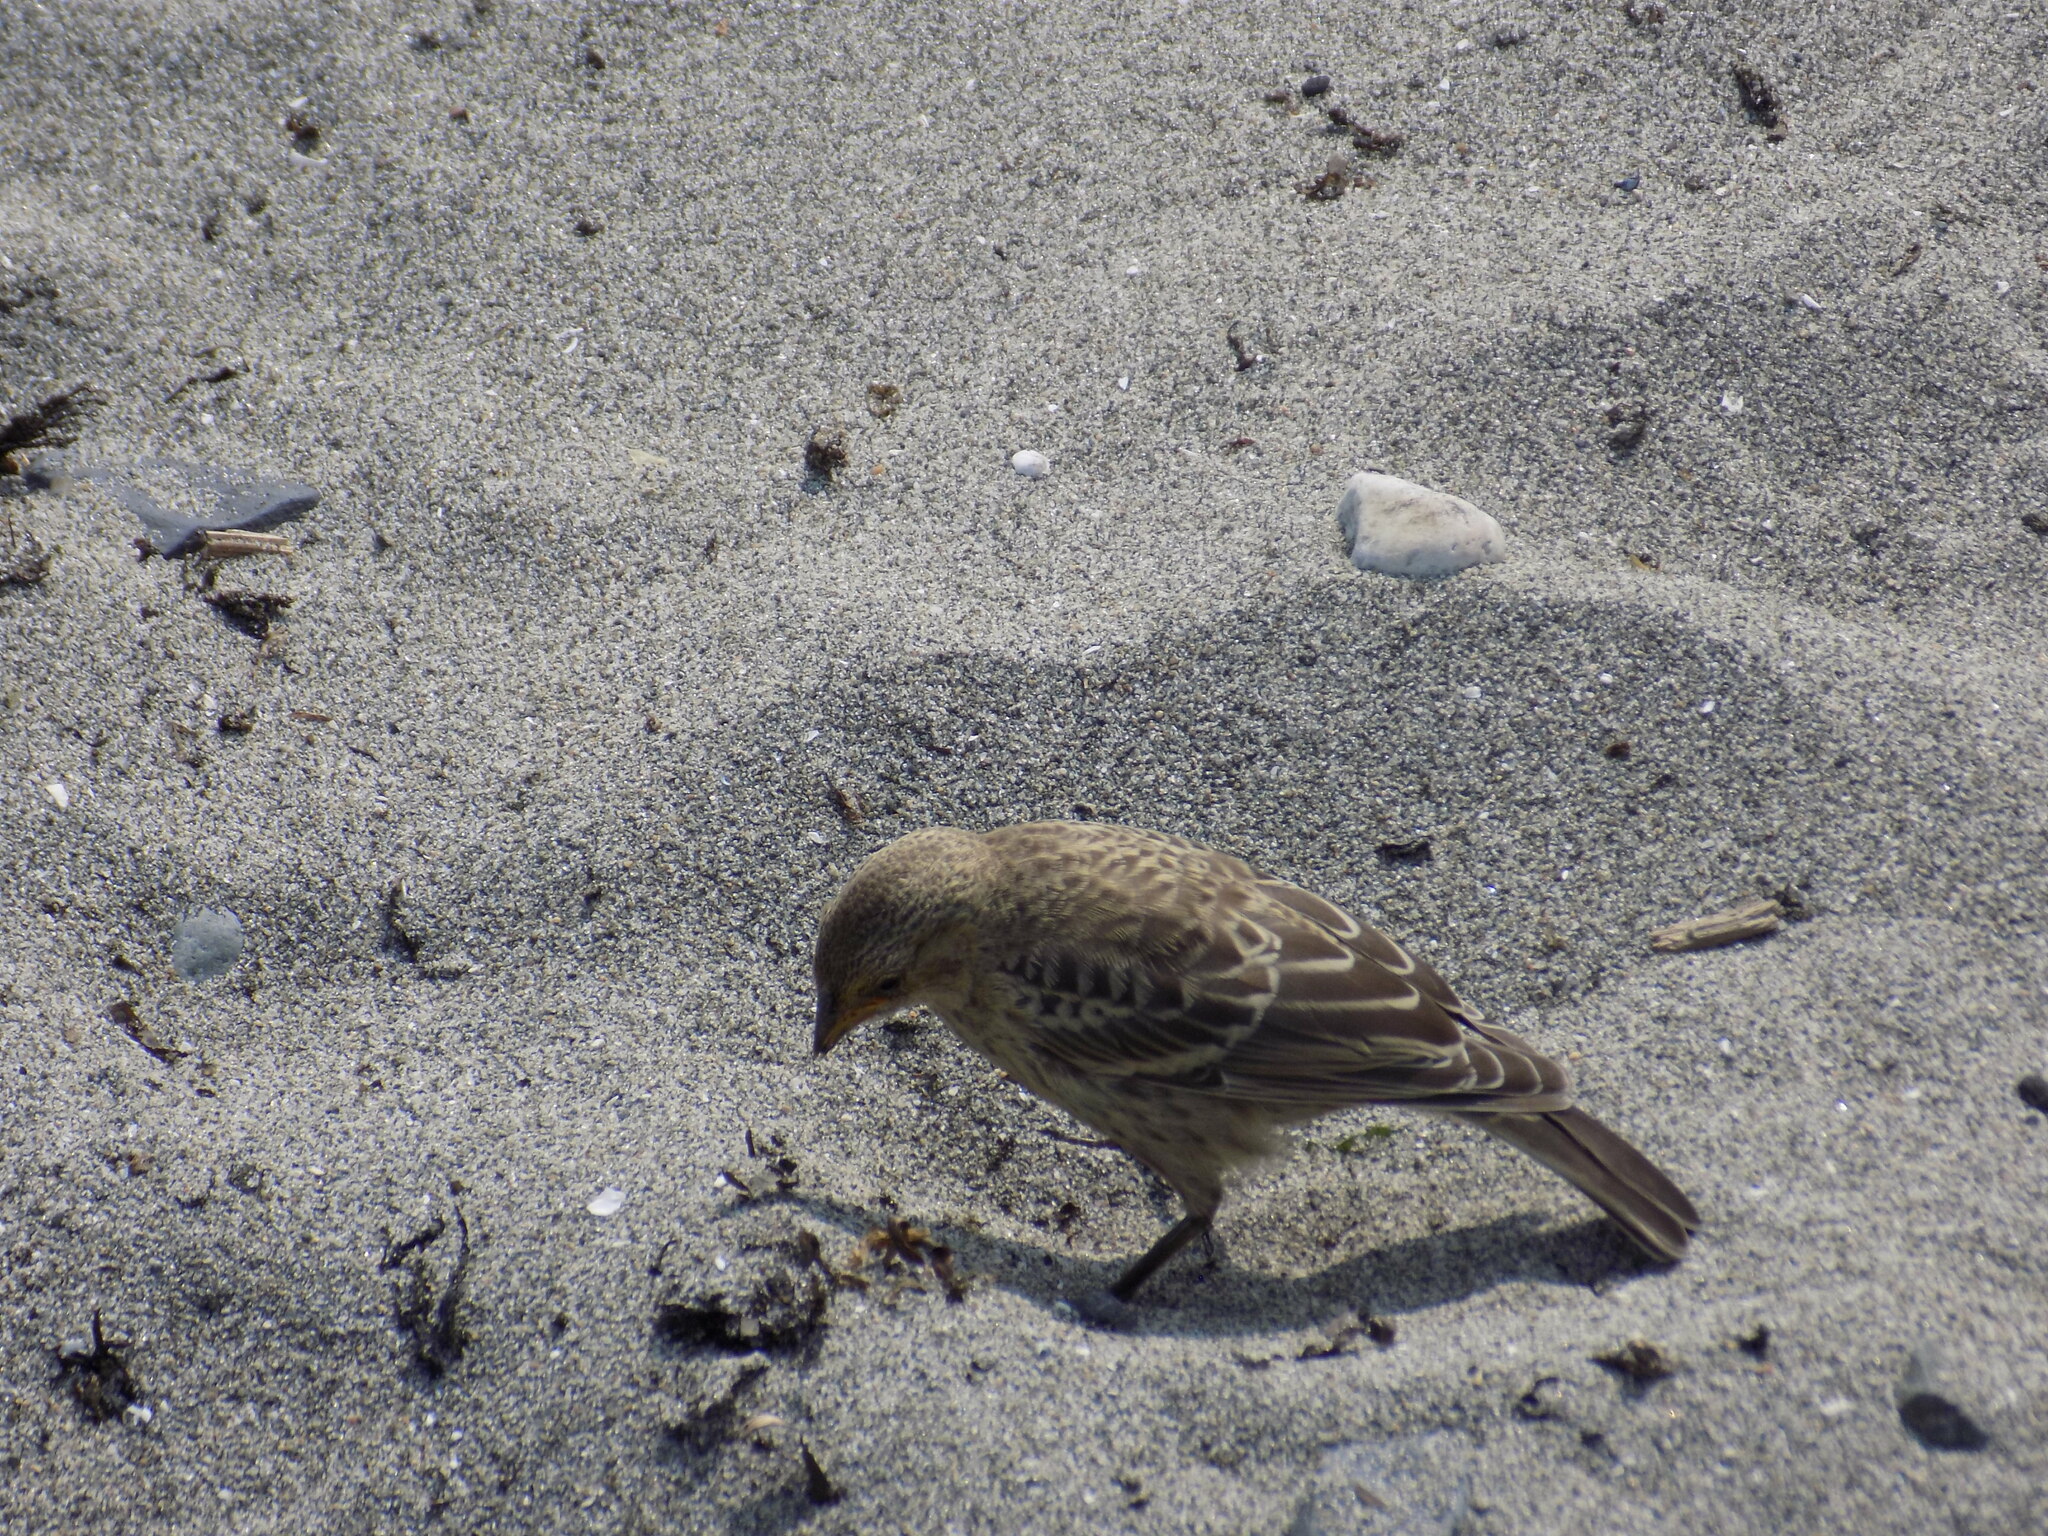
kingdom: Animalia
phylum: Chordata
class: Aves
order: Passeriformes
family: Icteridae
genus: Molothrus
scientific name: Molothrus ater
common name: Brown-headed cowbird
